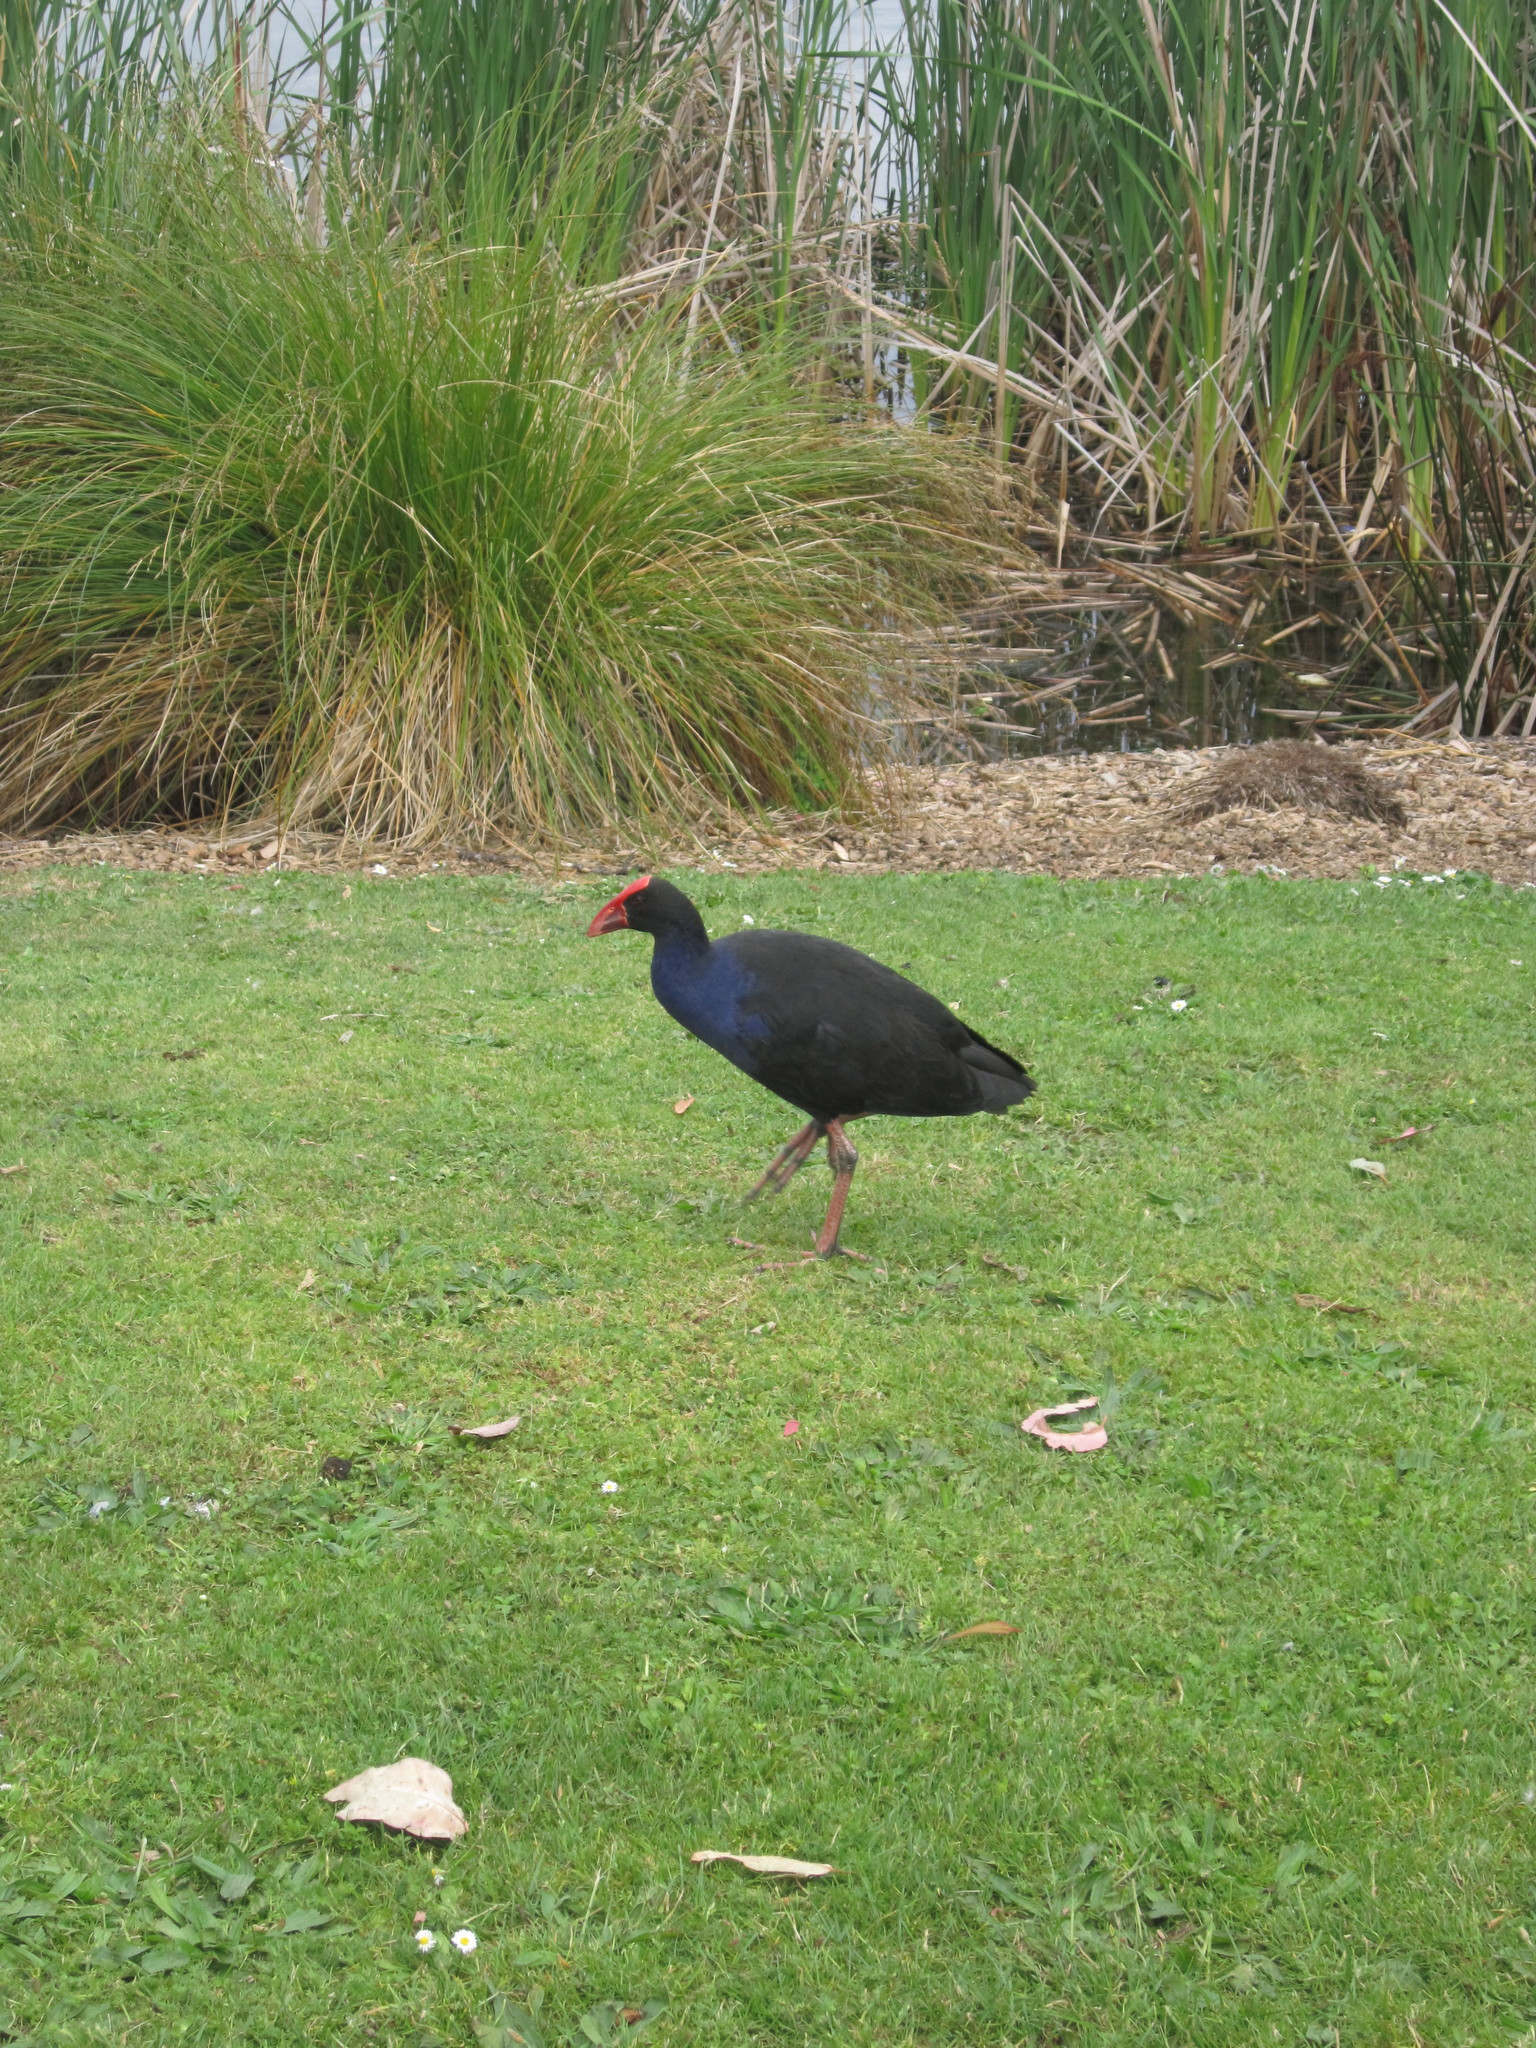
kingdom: Animalia
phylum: Chordata
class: Aves
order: Gruiformes
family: Rallidae
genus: Porphyrio
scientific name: Porphyrio melanotus
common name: Australasian swamphen
